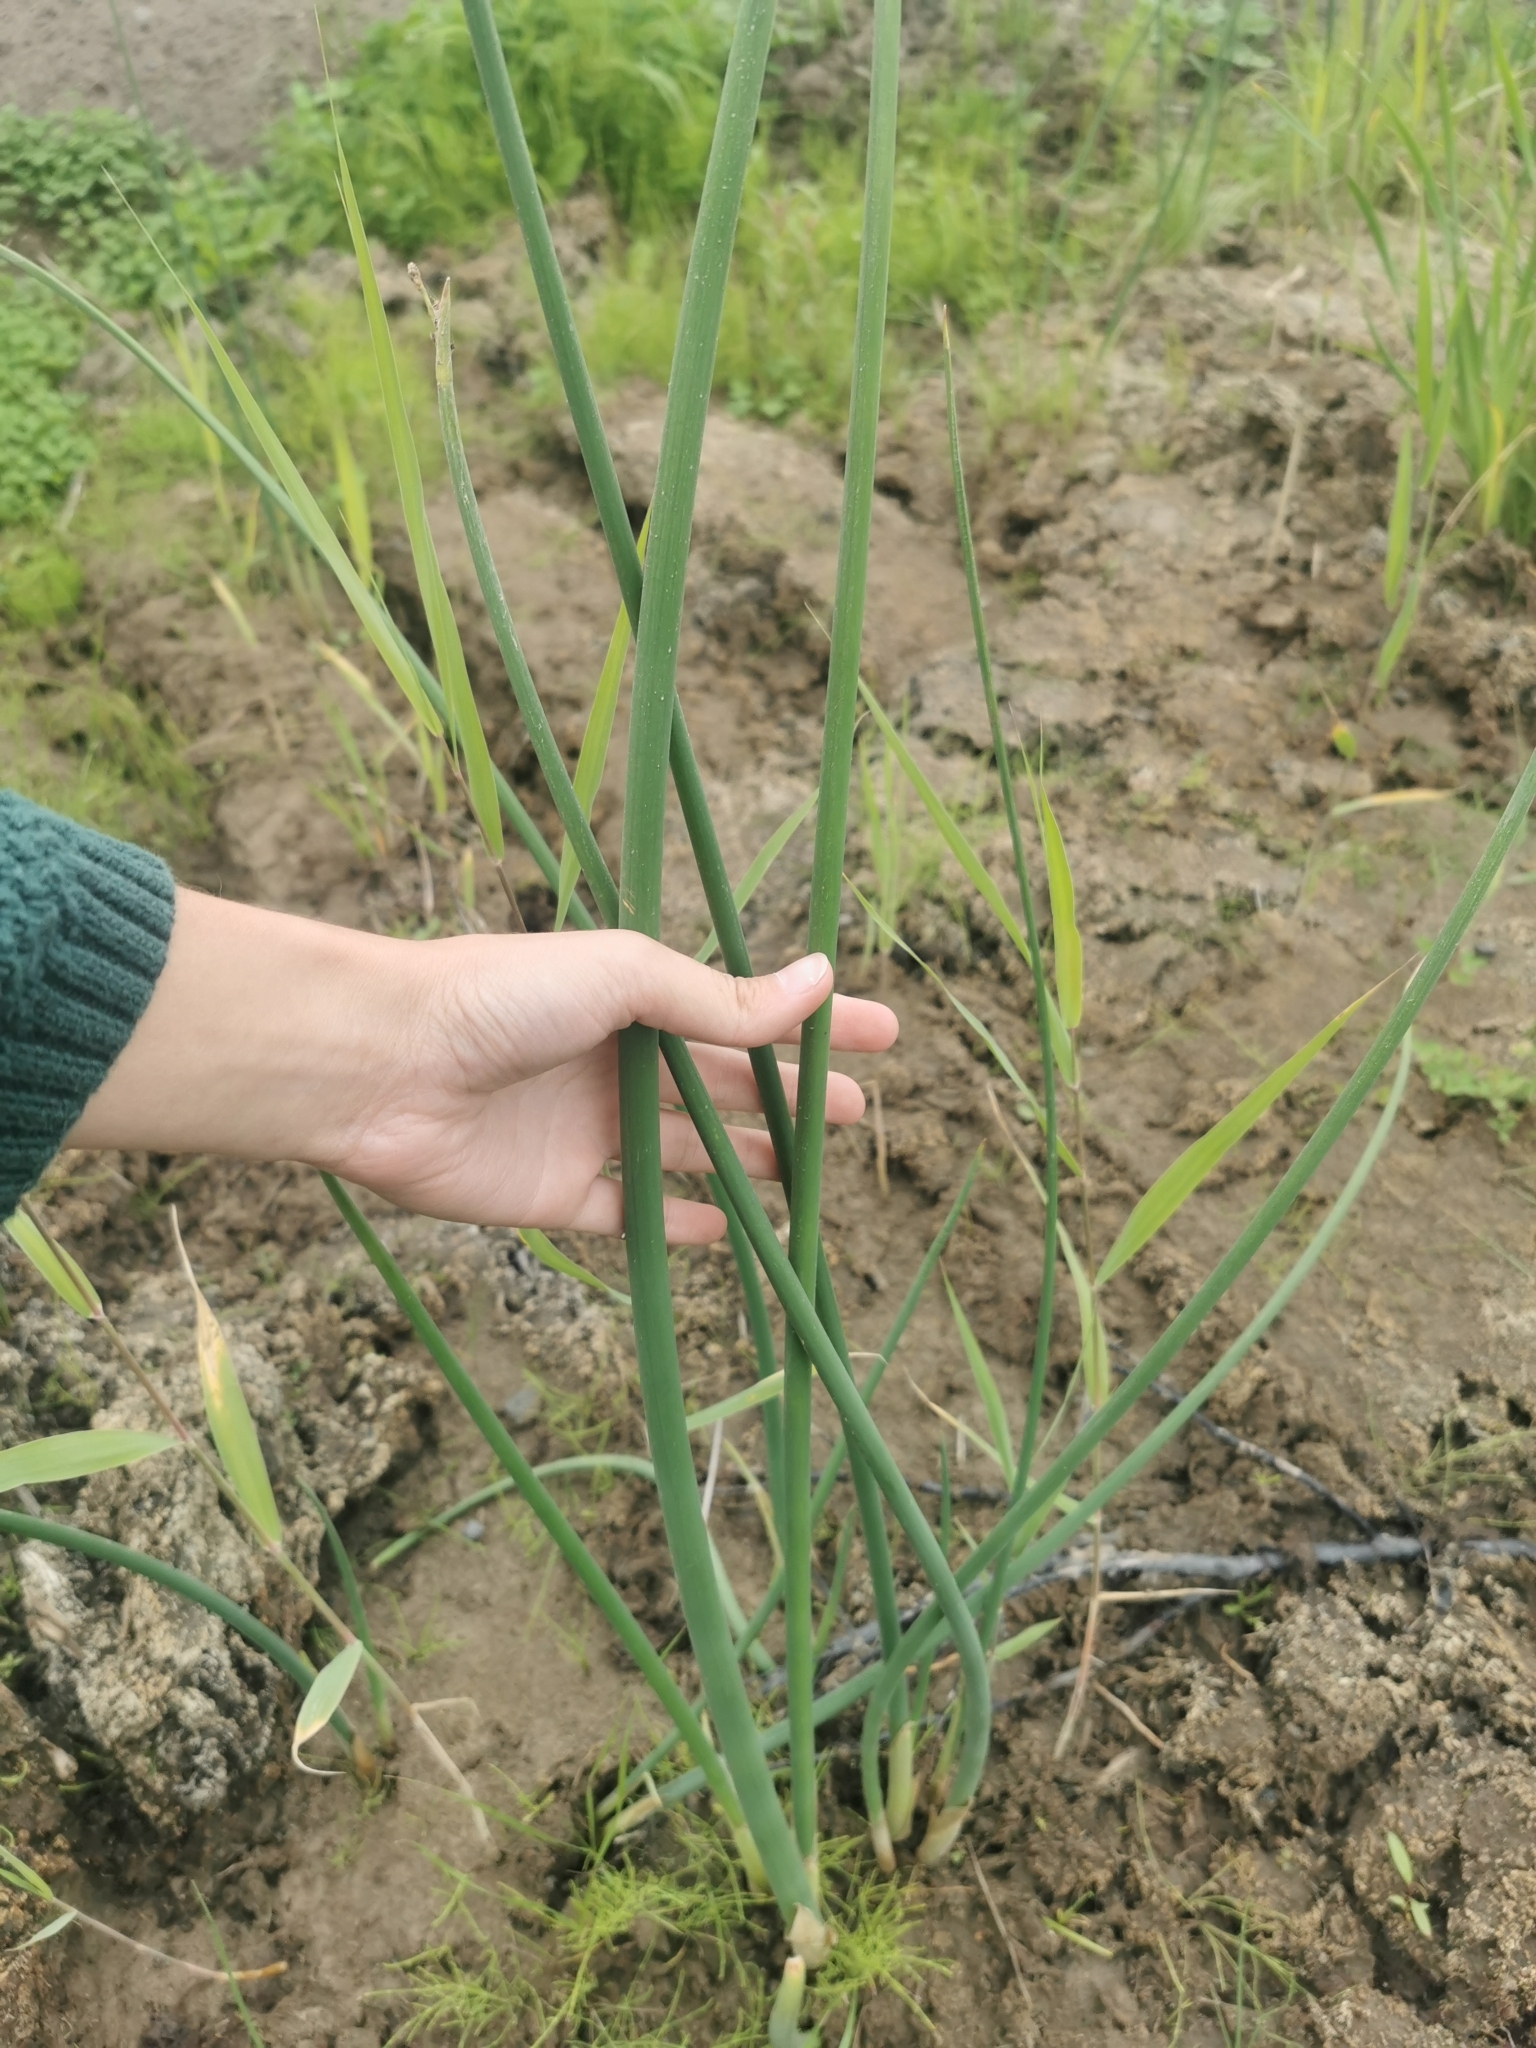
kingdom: Plantae
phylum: Tracheophyta
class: Liliopsida
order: Poales
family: Cyperaceae
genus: Schoenoplectus
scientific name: Schoenoplectus tabernaemontani
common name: Grey club-rush
